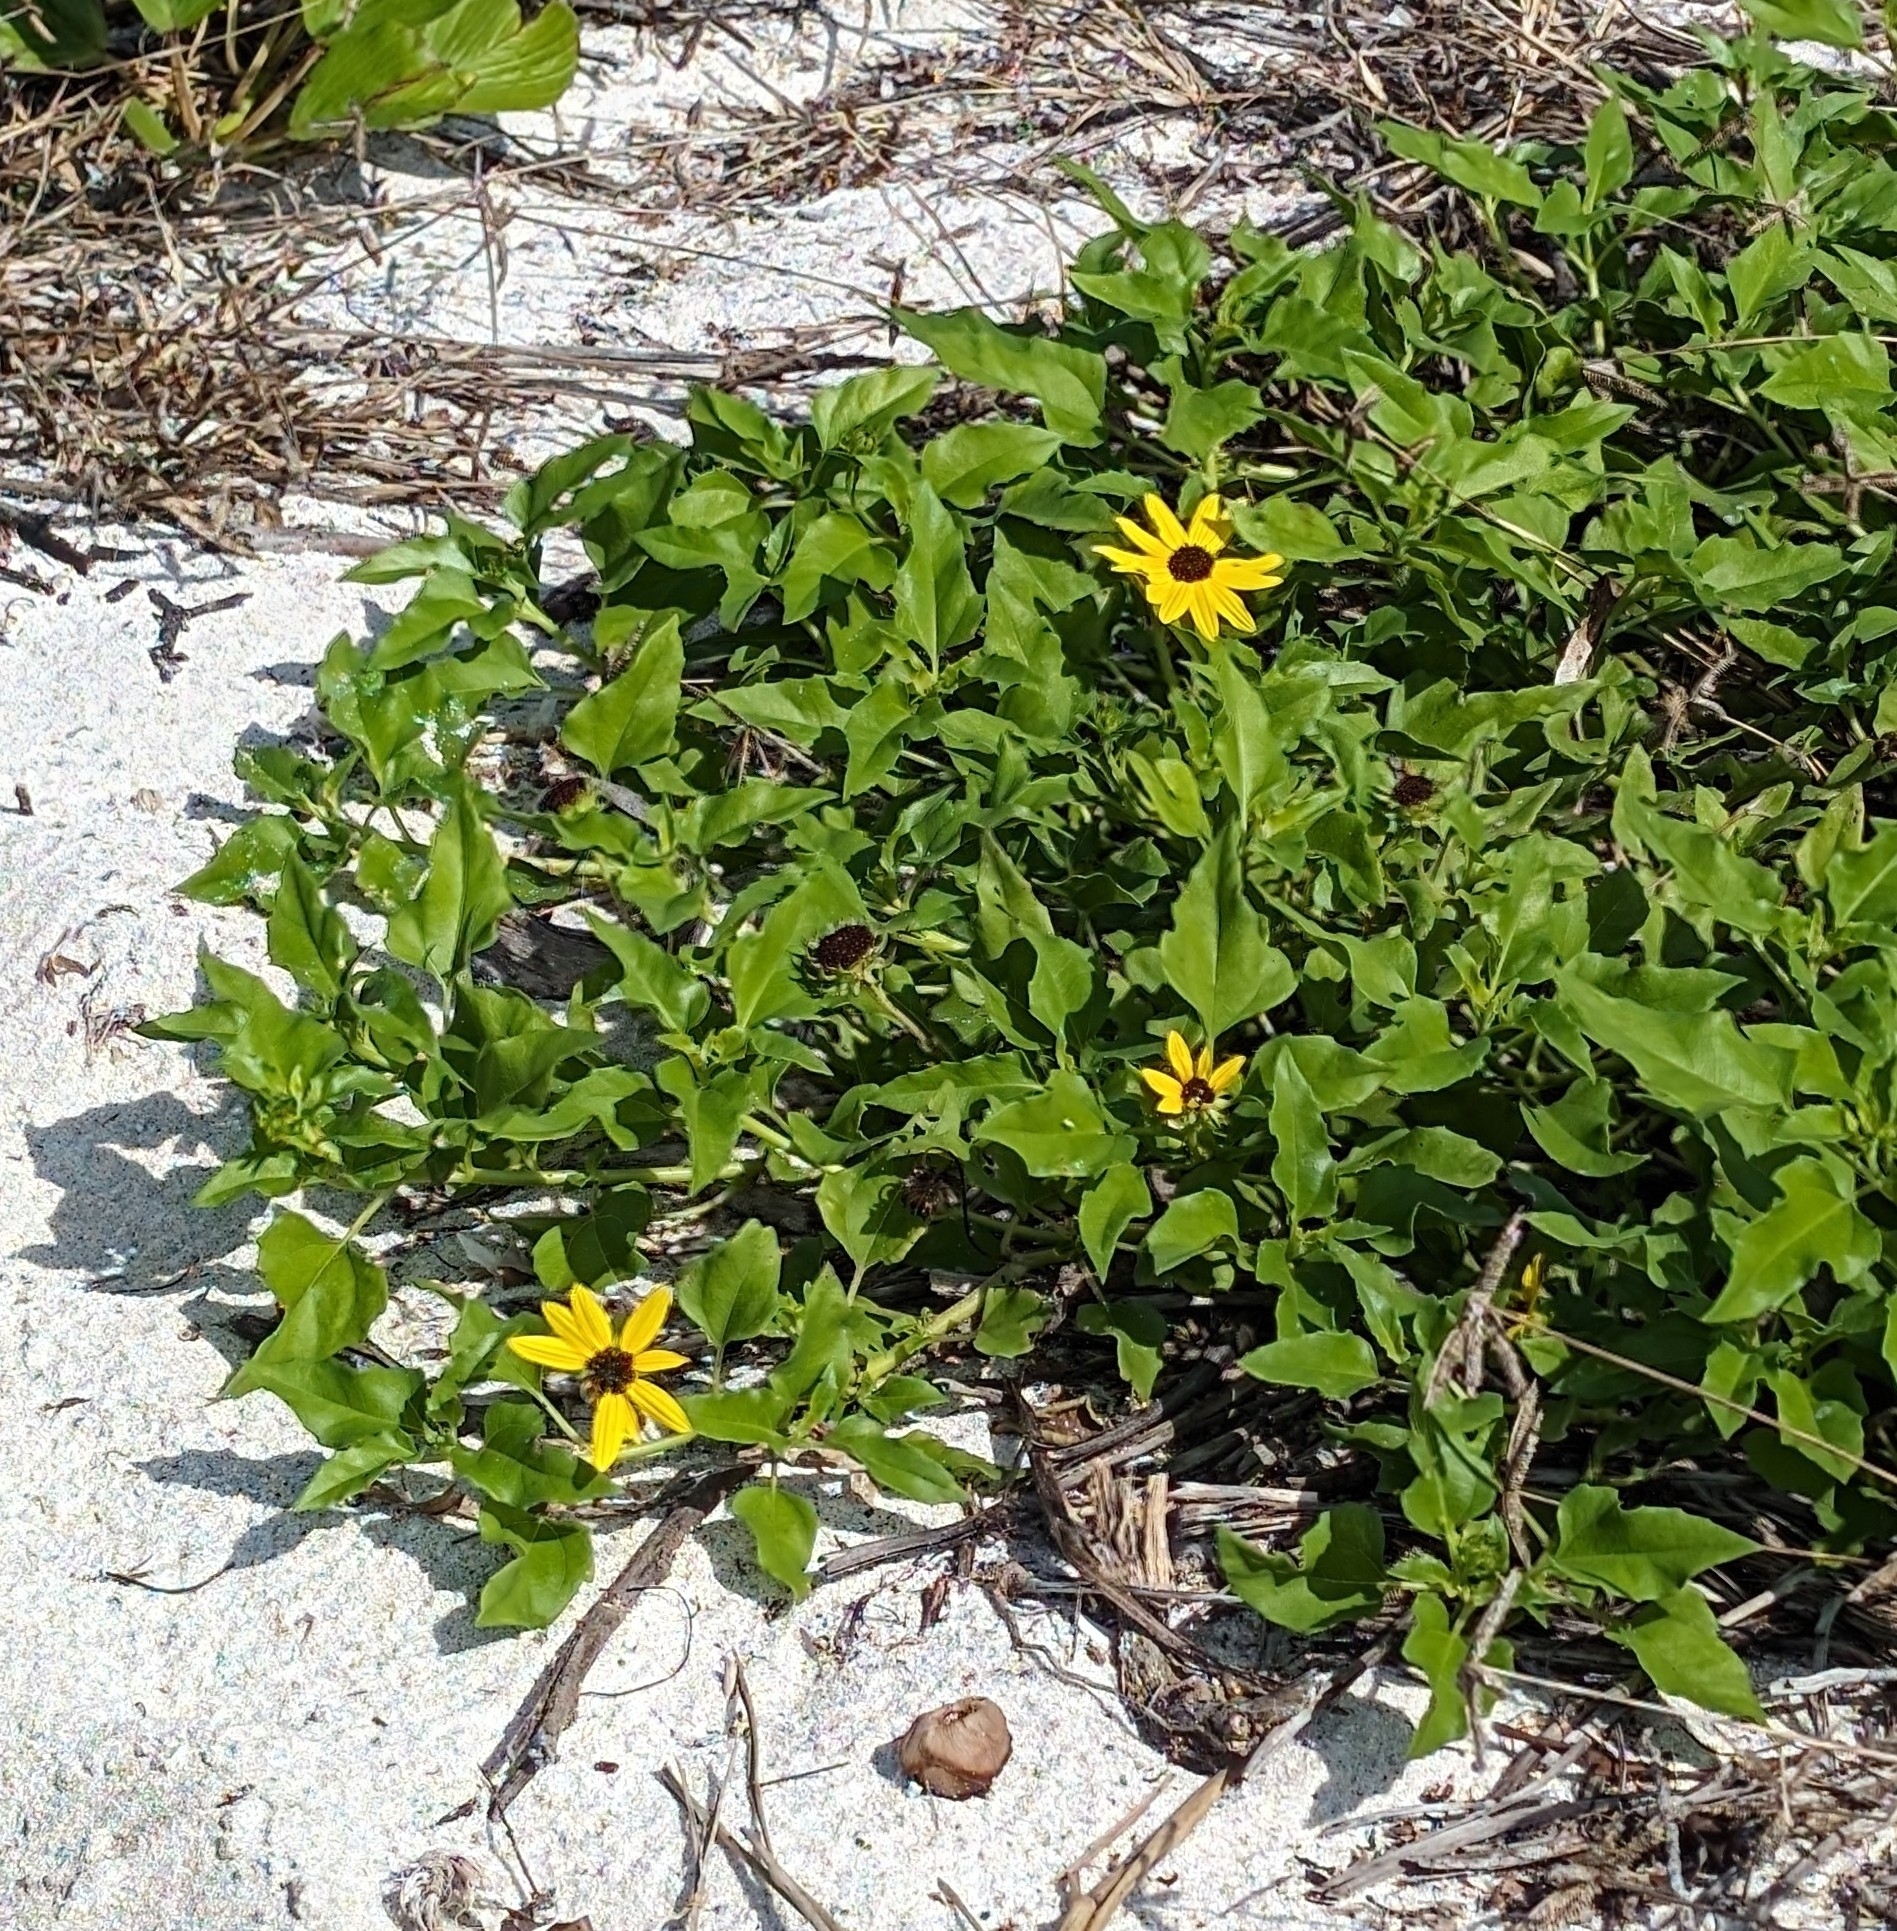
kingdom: Plantae
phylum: Tracheophyta
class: Magnoliopsida
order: Asterales
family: Asteraceae
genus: Helianthus
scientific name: Helianthus debilis
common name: Weak sunflower
